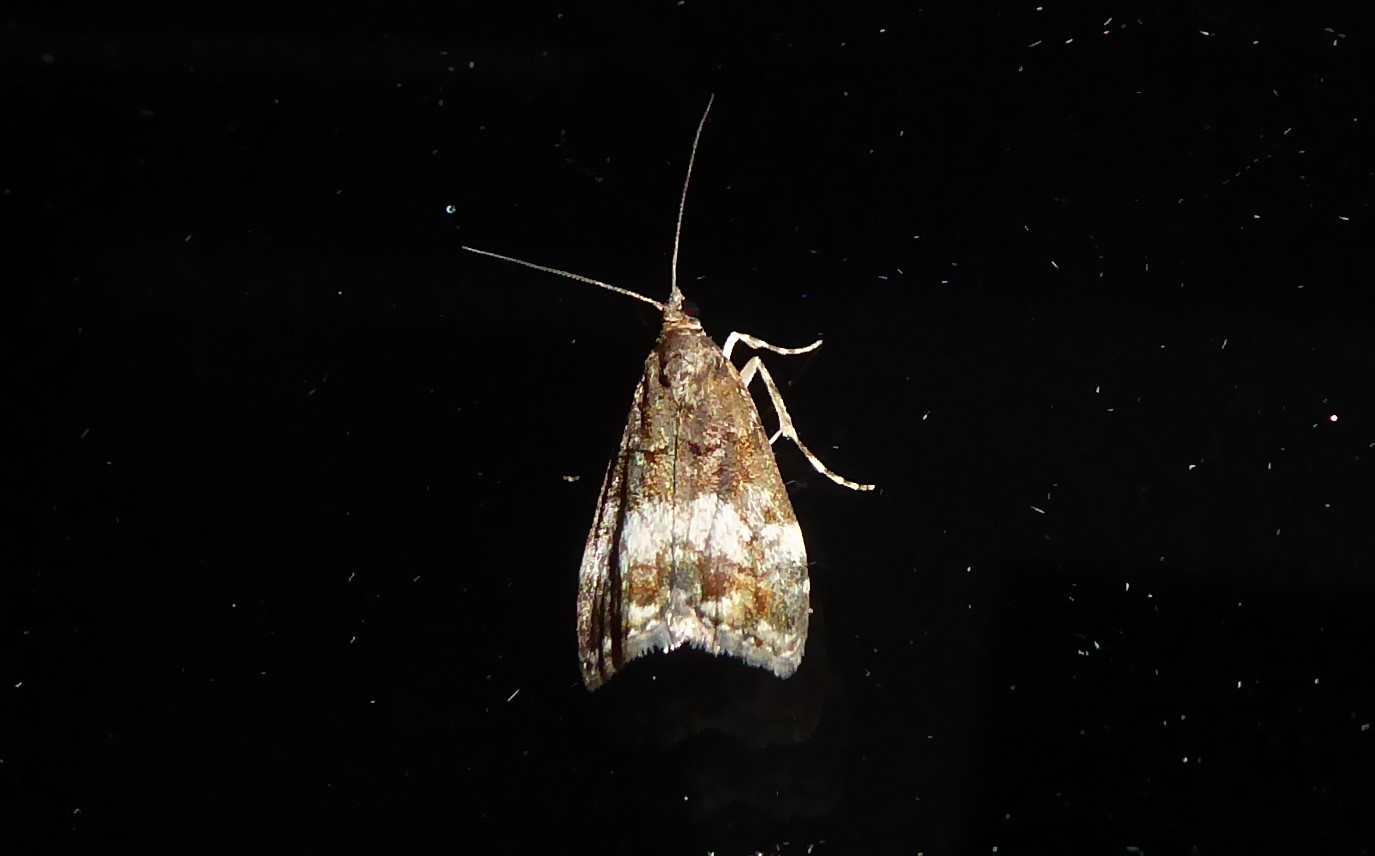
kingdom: Animalia
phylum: Arthropoda
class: Insecta
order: Lepidoptera
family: Crambidae
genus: Eudonia
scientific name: Eudonia dinodes
